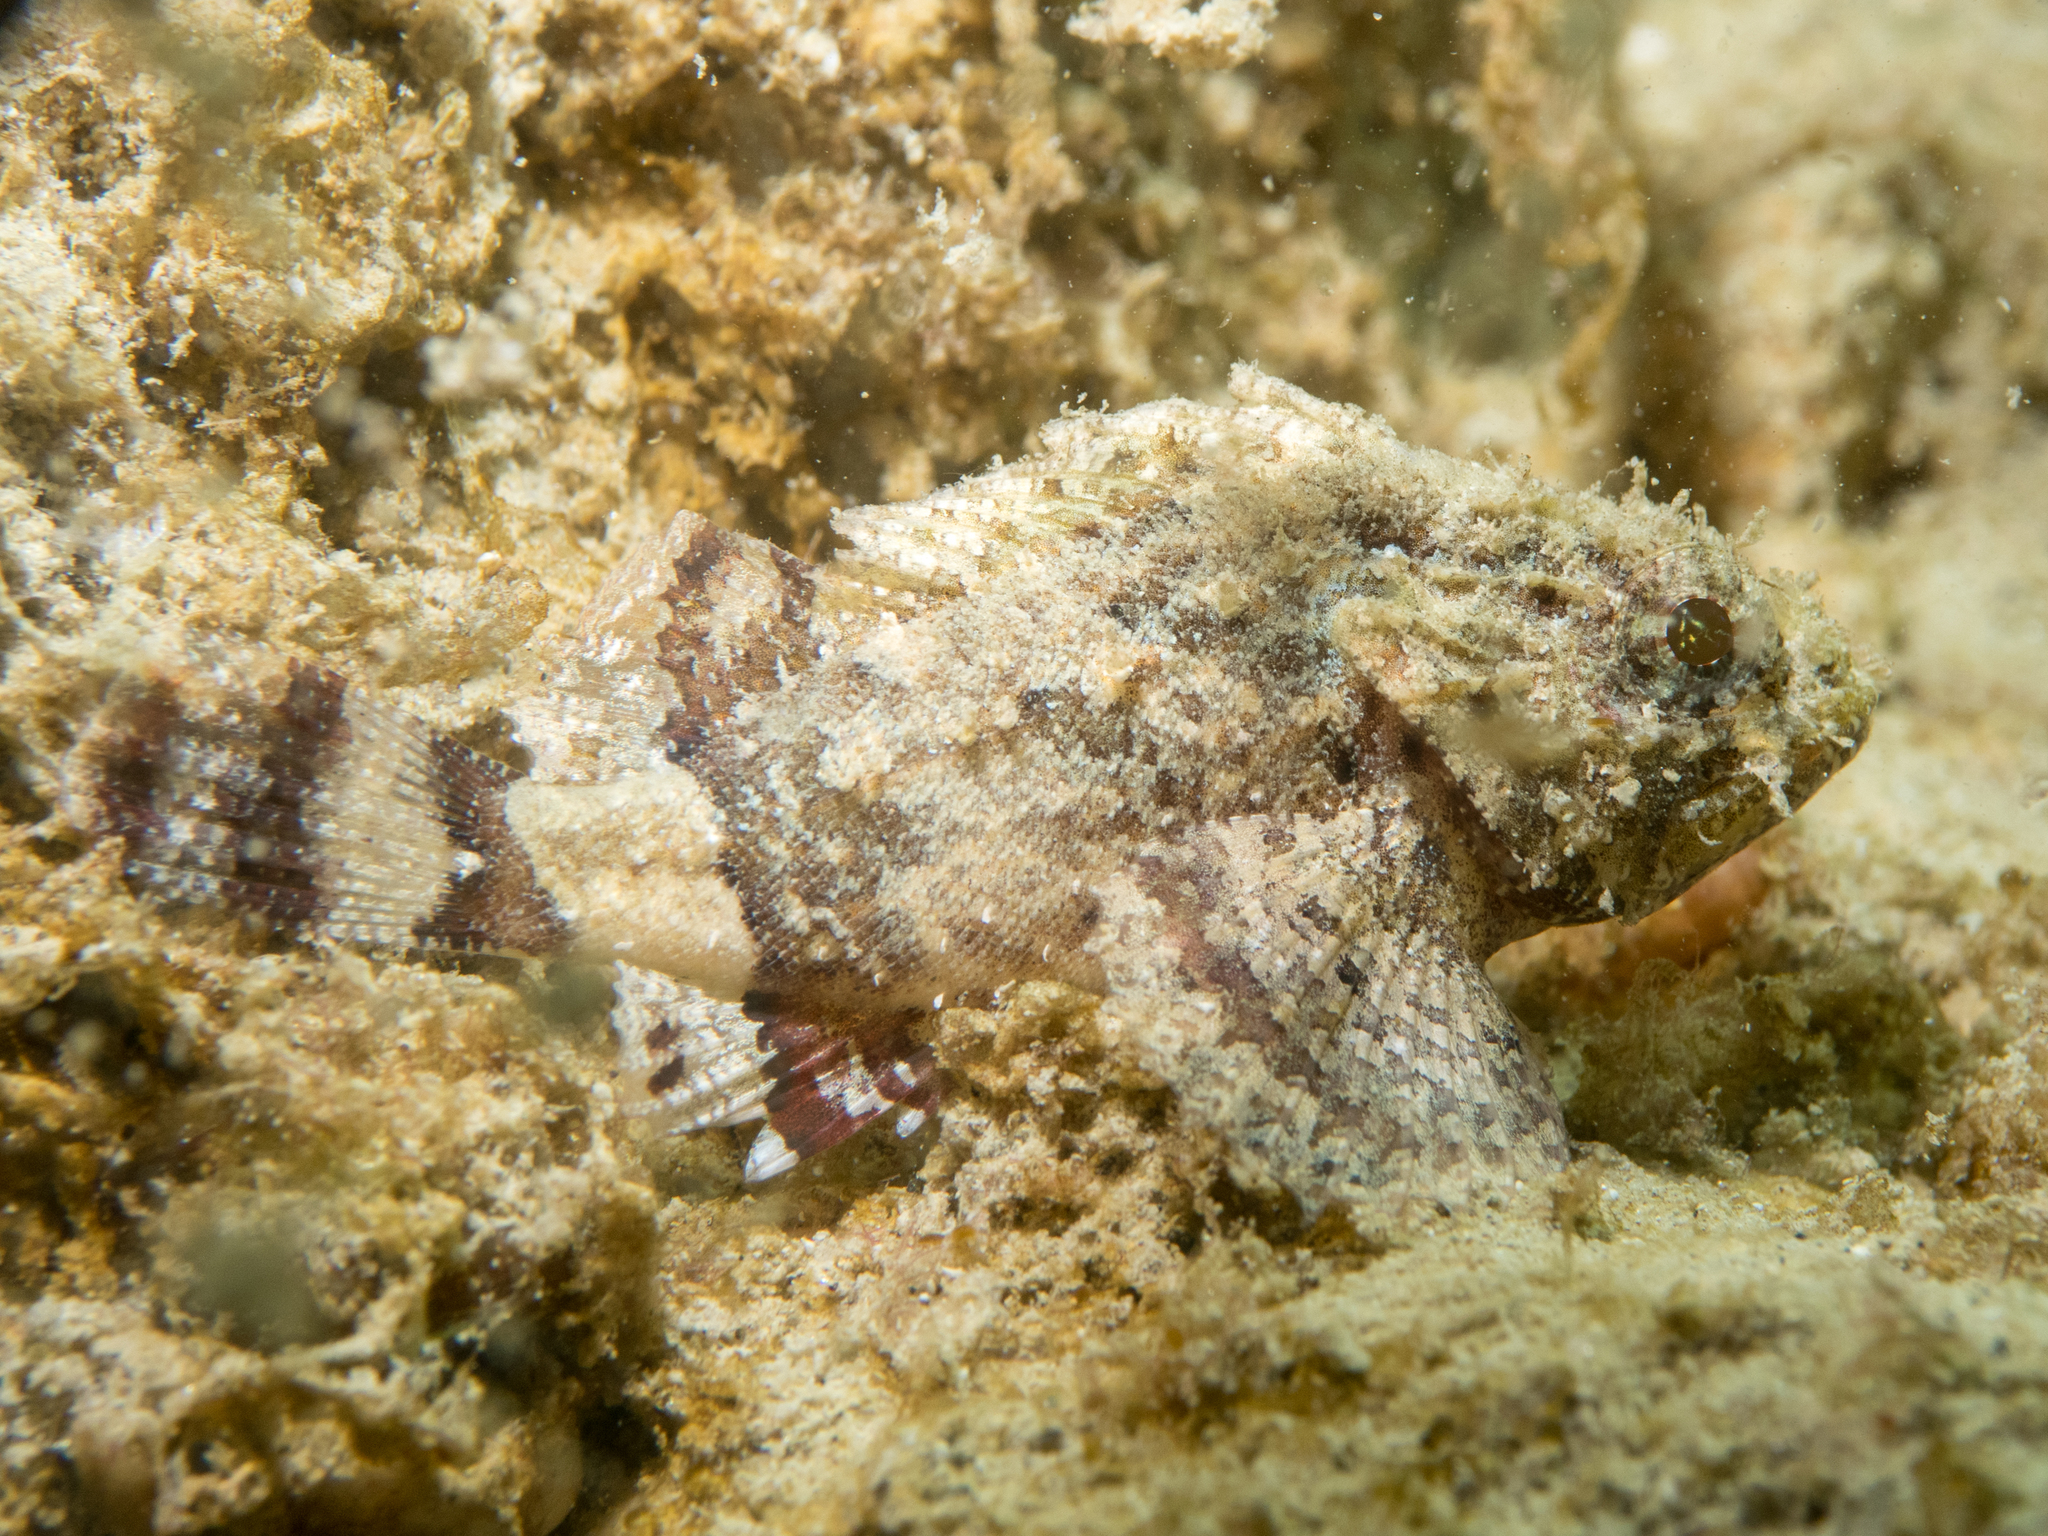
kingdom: Animalia
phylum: Chordata
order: Scorpaeniformes
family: Scorpaenidae
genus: Scorpaena
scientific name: Scorpaena porcus
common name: Black scorpionfish
